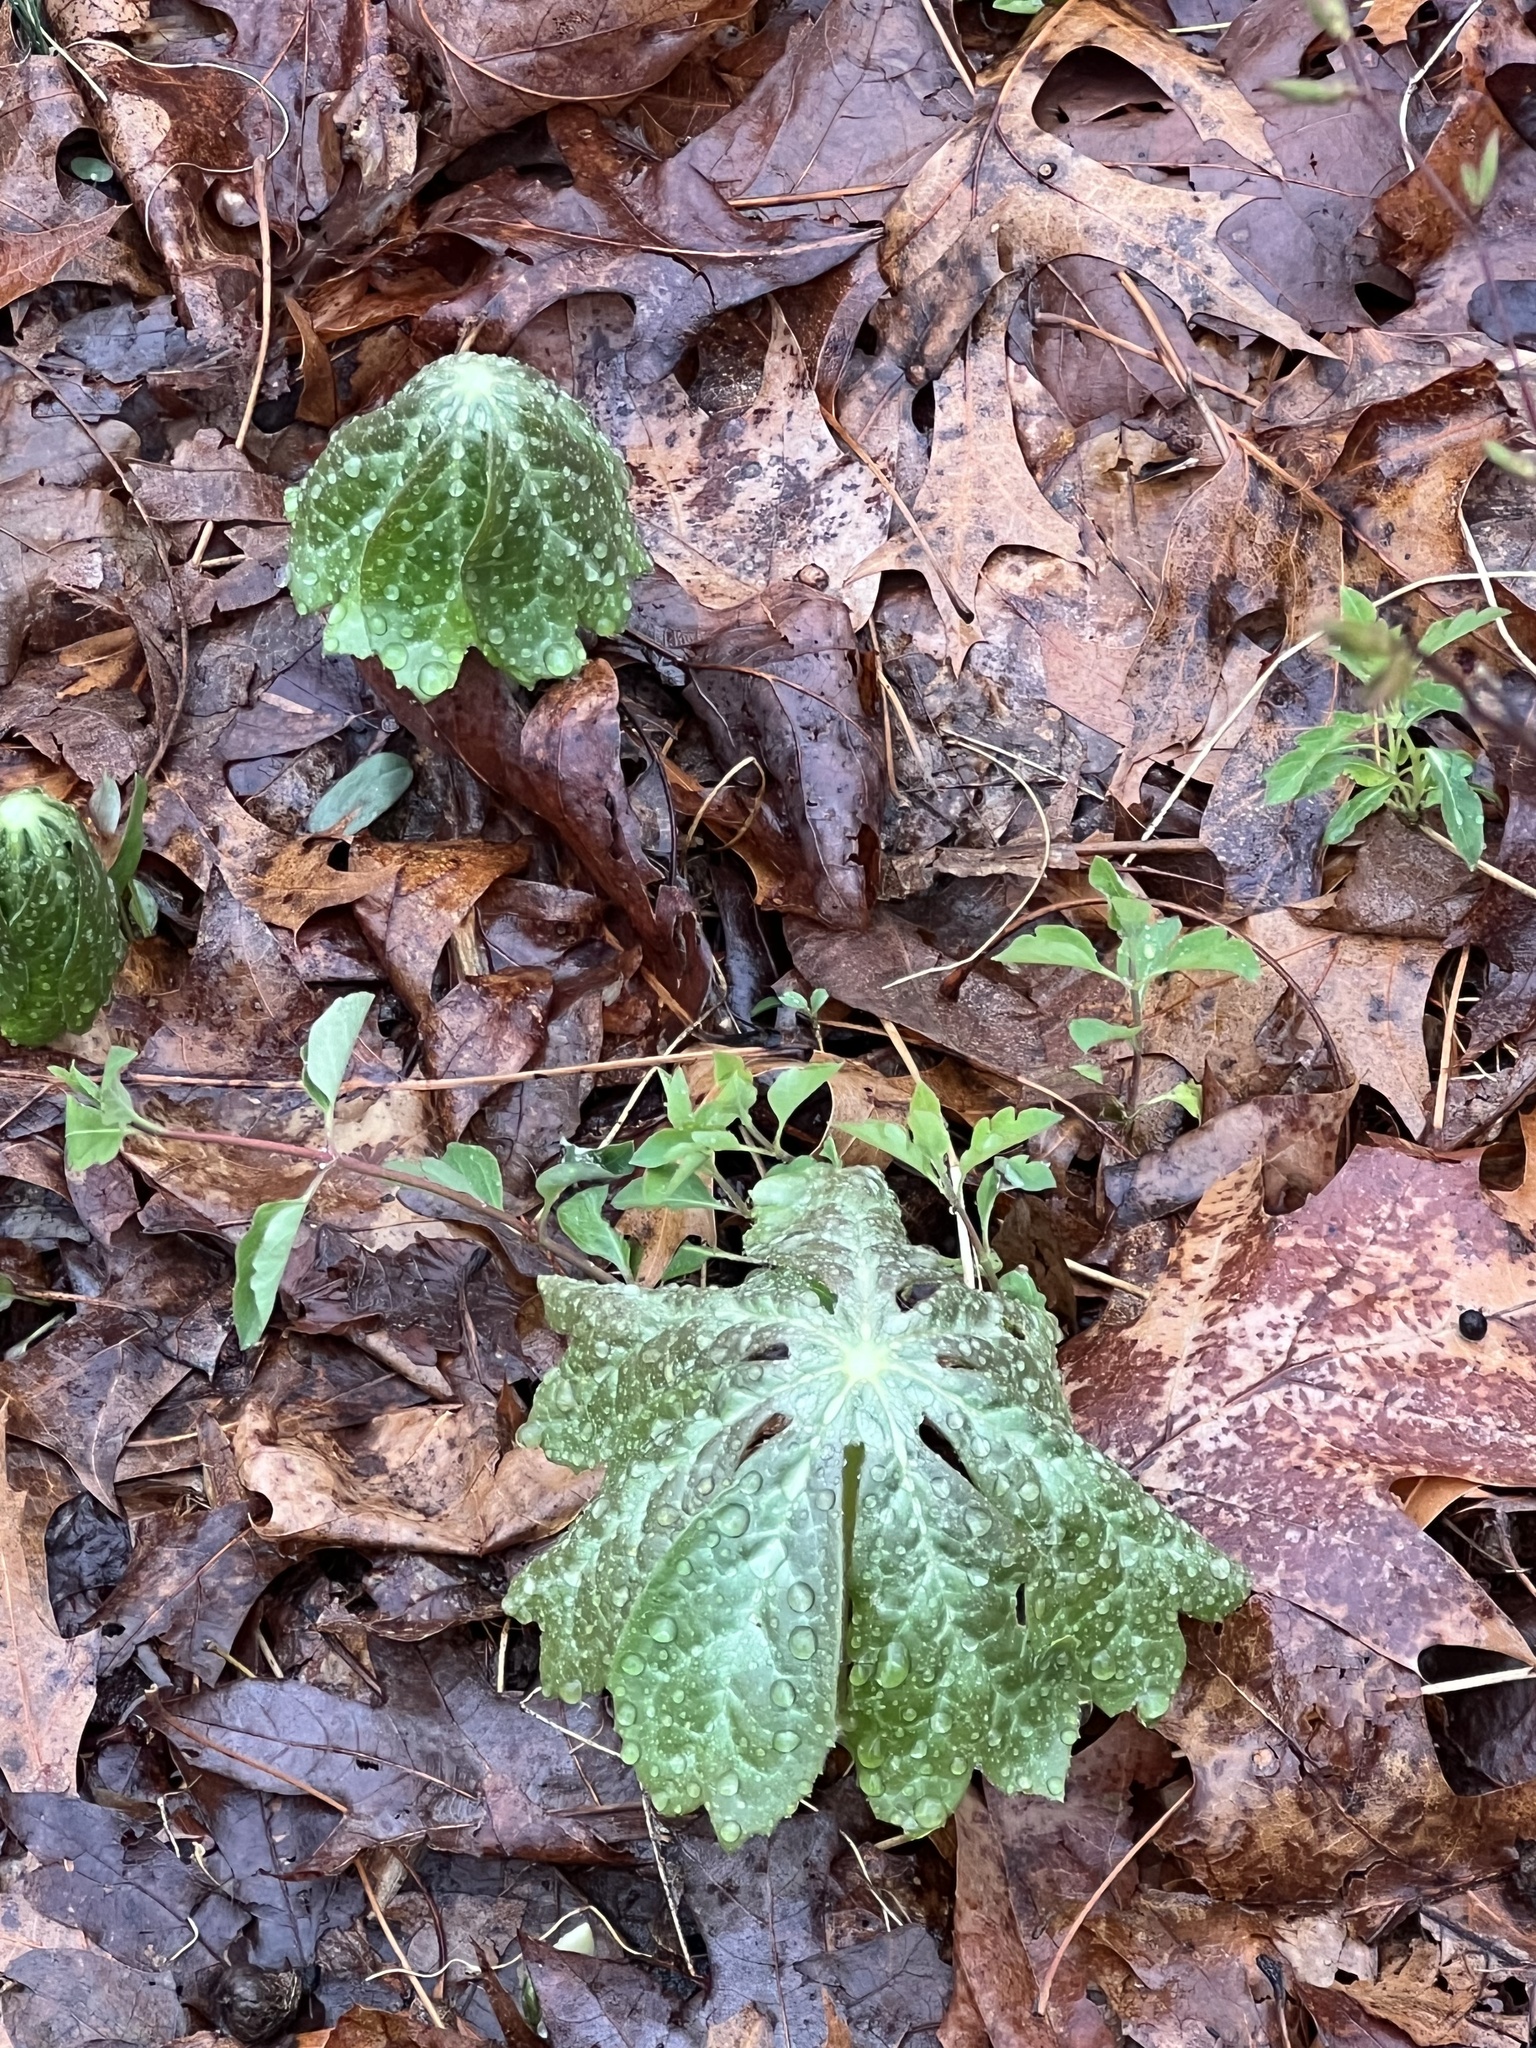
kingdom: Plantae
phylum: Tracheophyta
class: Magnoliopsida
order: Ranunculales
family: Berberidaceae
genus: Podophyllum
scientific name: Podophyllum peltatum
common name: Wild mandrake
